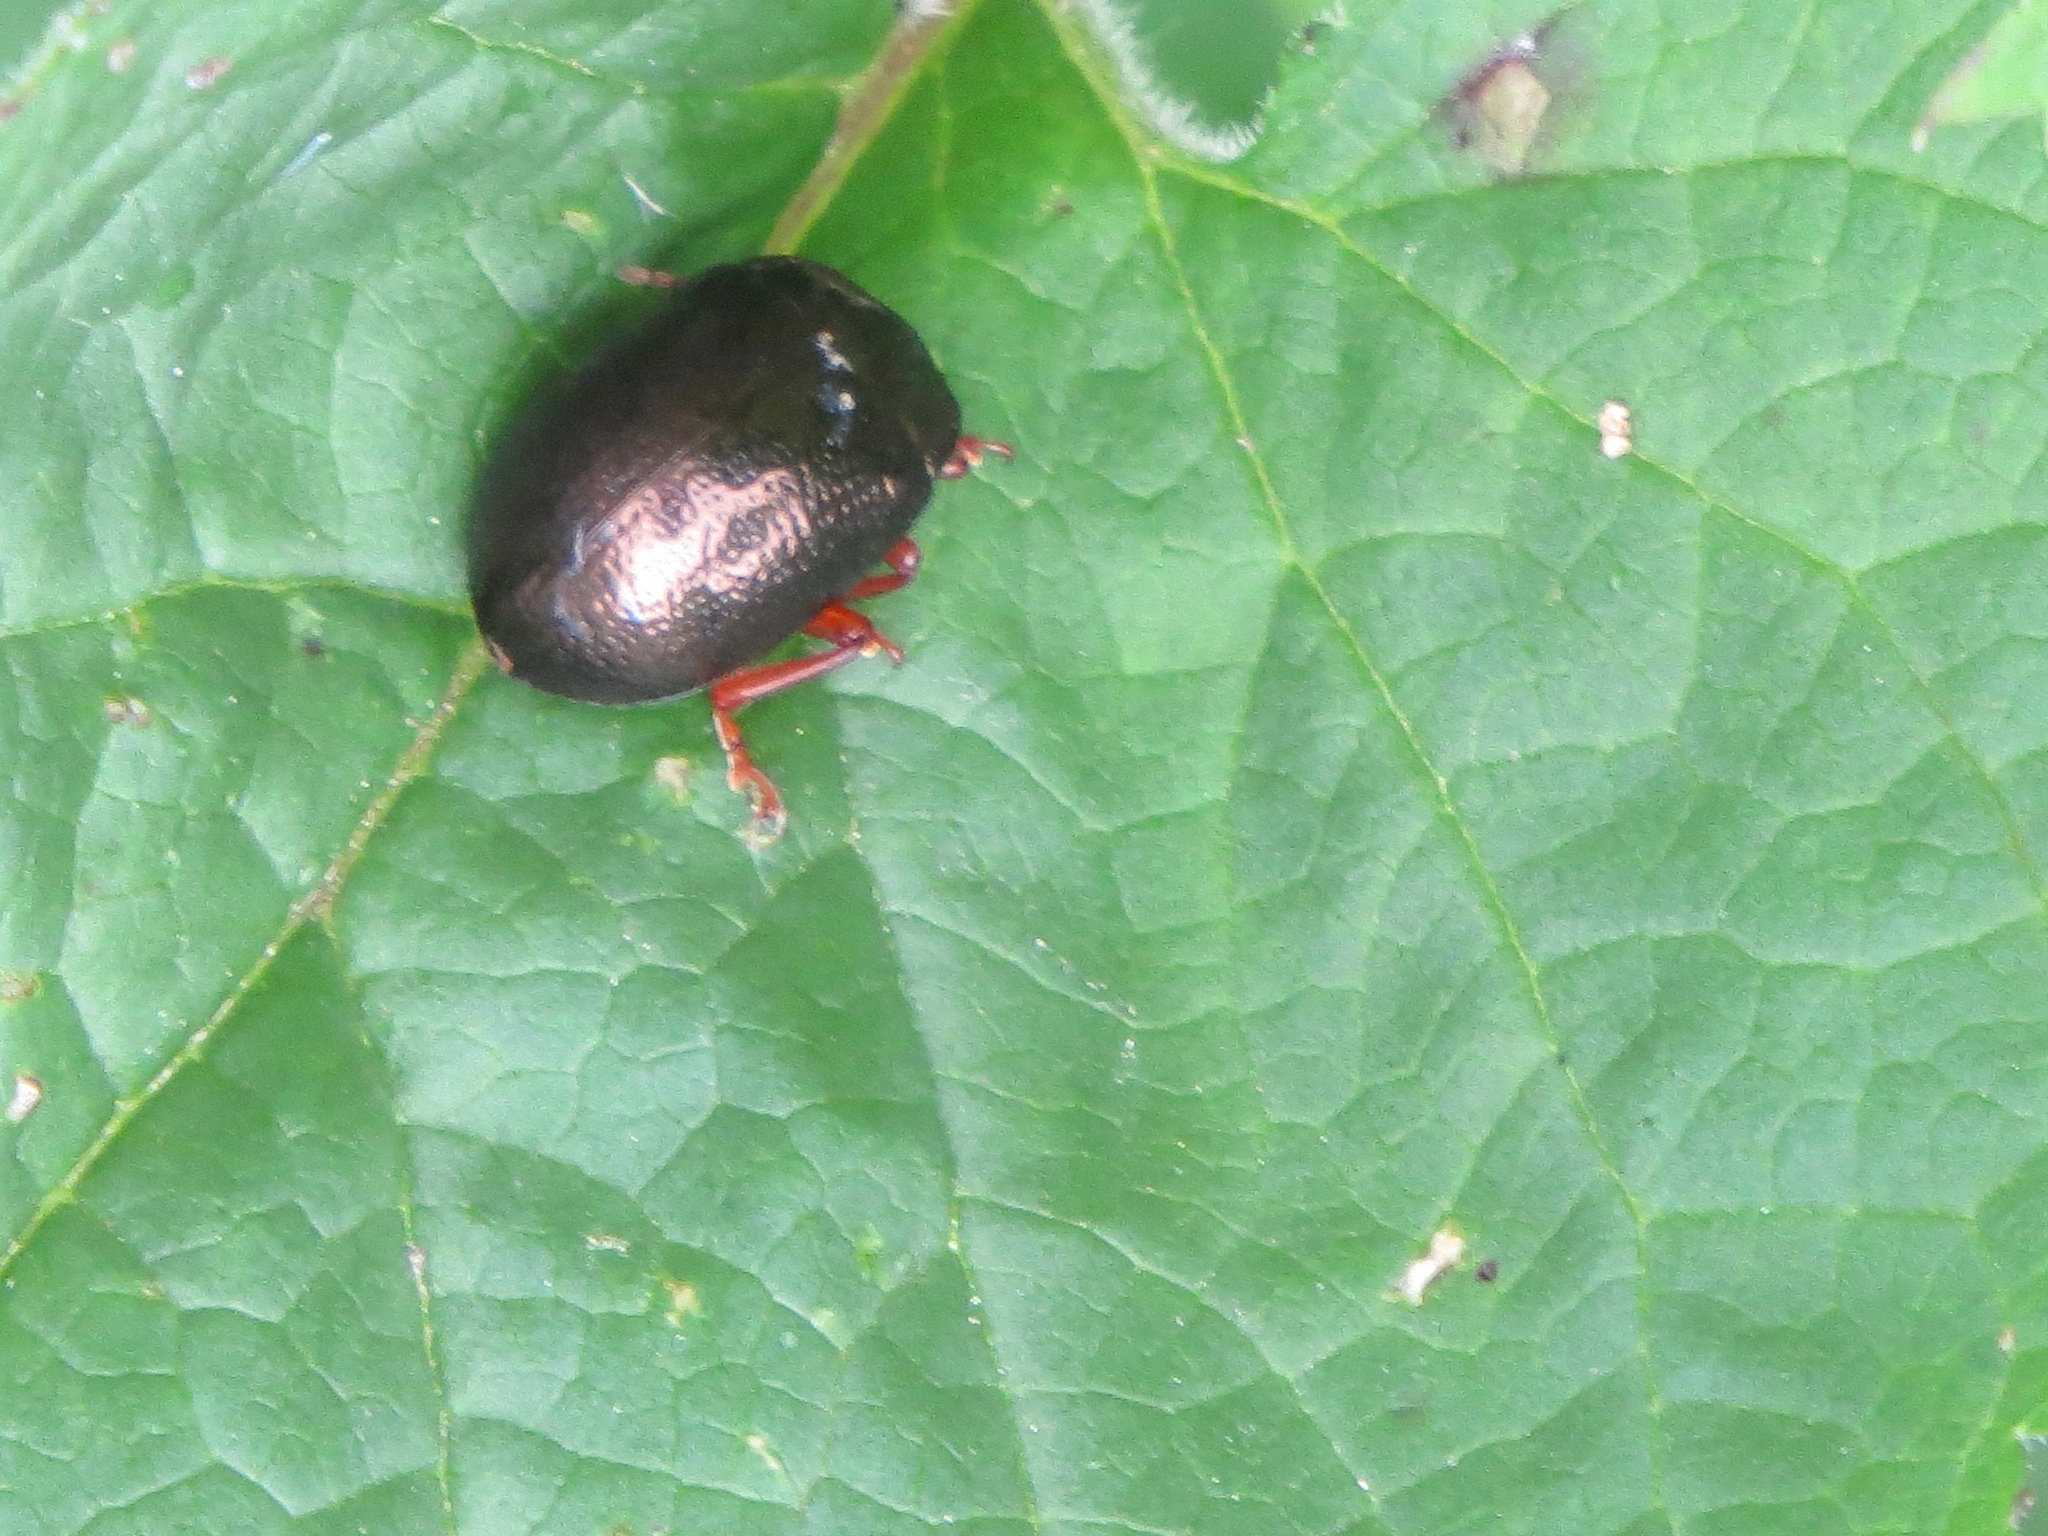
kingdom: Animalia
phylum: Arthropoda
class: Insecta
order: Coleoptera
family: Chrysomelidae
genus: Chrysolina
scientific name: Chrysolina bankii
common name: Leaf beetle
